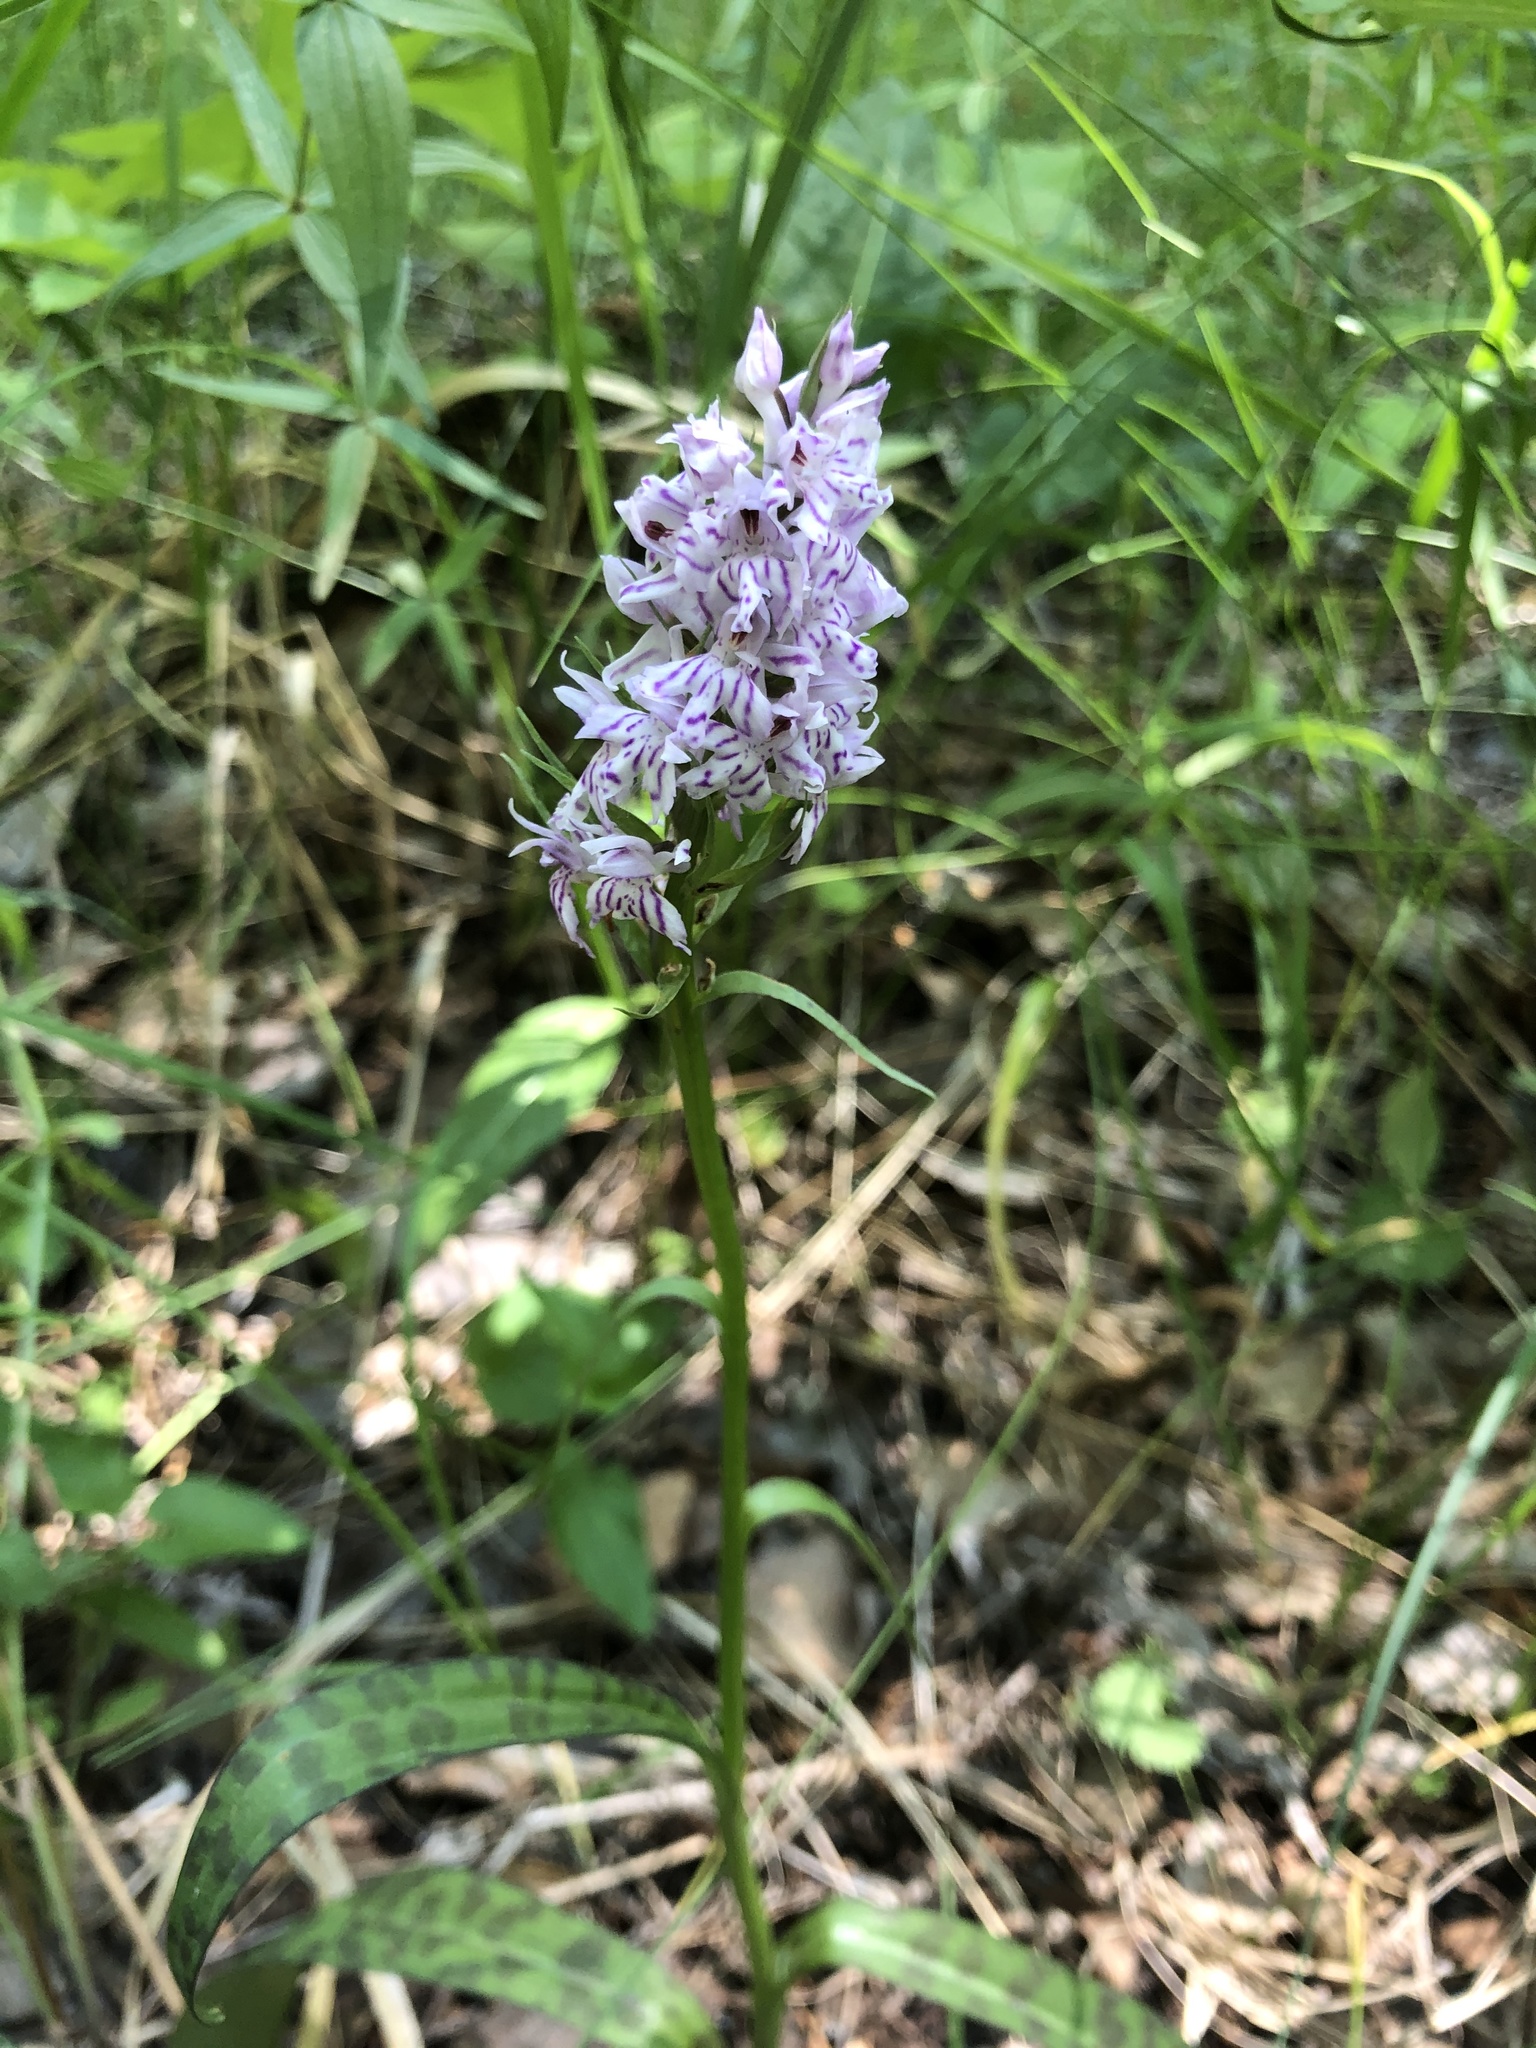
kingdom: Plantae
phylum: Tracheophyta
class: Liliopsida
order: Asparagales
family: Orchidaceae
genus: Dactylorhiza
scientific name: Dactylorhiza maculata
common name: Heath spotted-orchid
